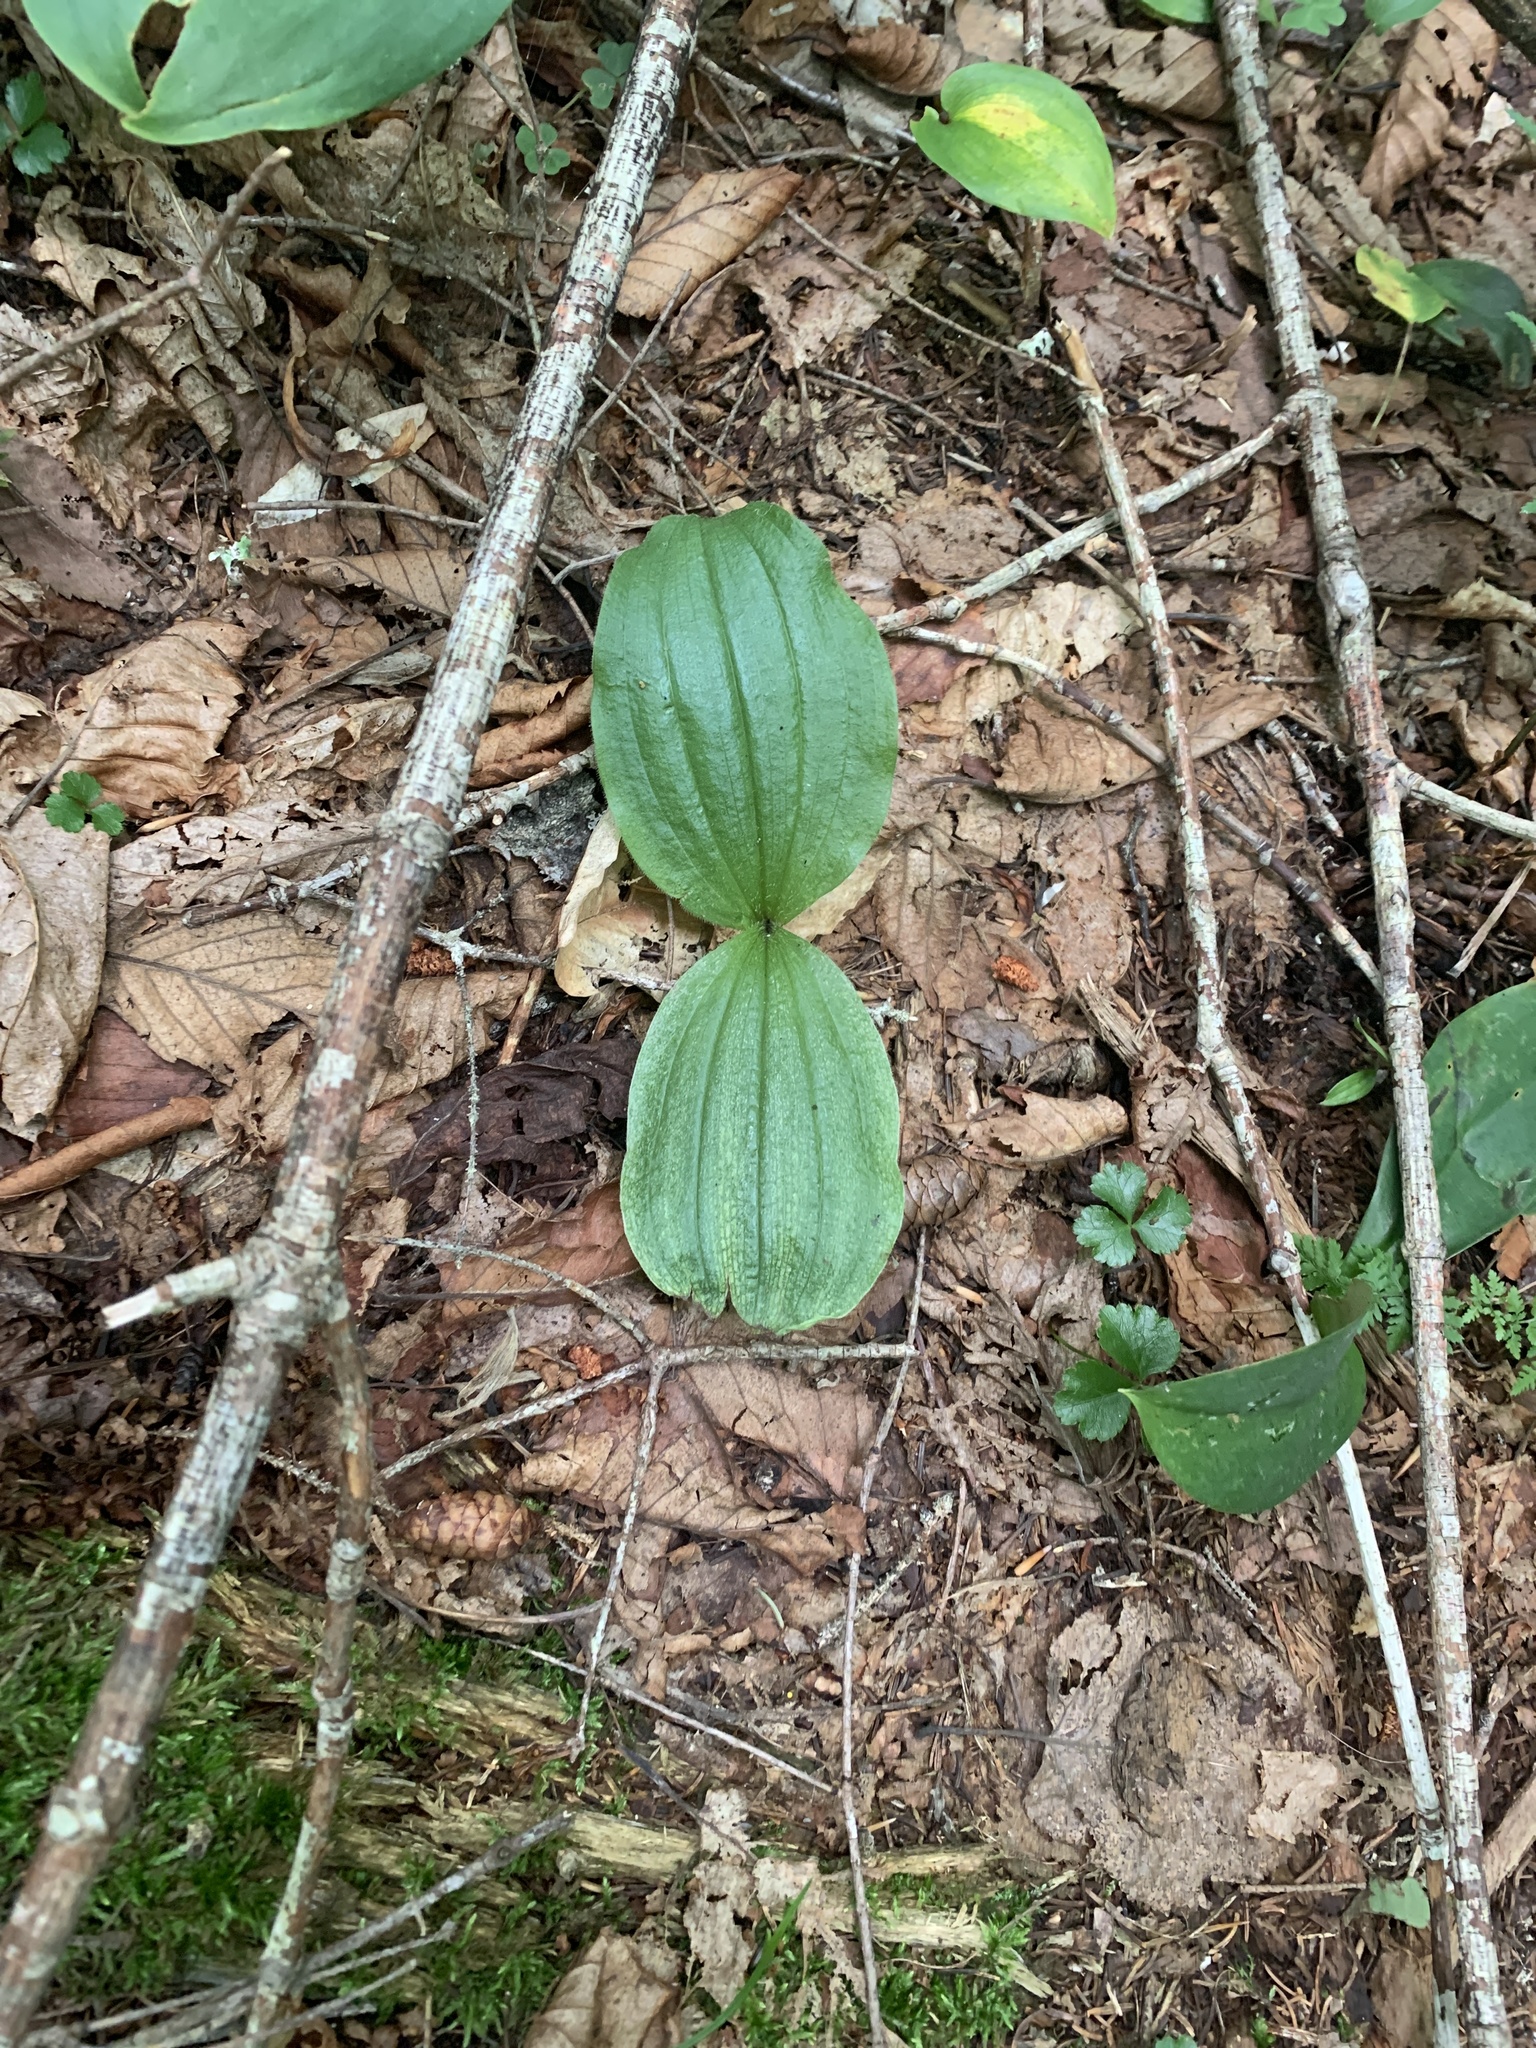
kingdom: Plantae
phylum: Tracheophyta
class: Liliopsida
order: Asparagales
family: Orchidaceae
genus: Cypripedium
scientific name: Cypripedium acaule
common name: Pink lady's-slipper
